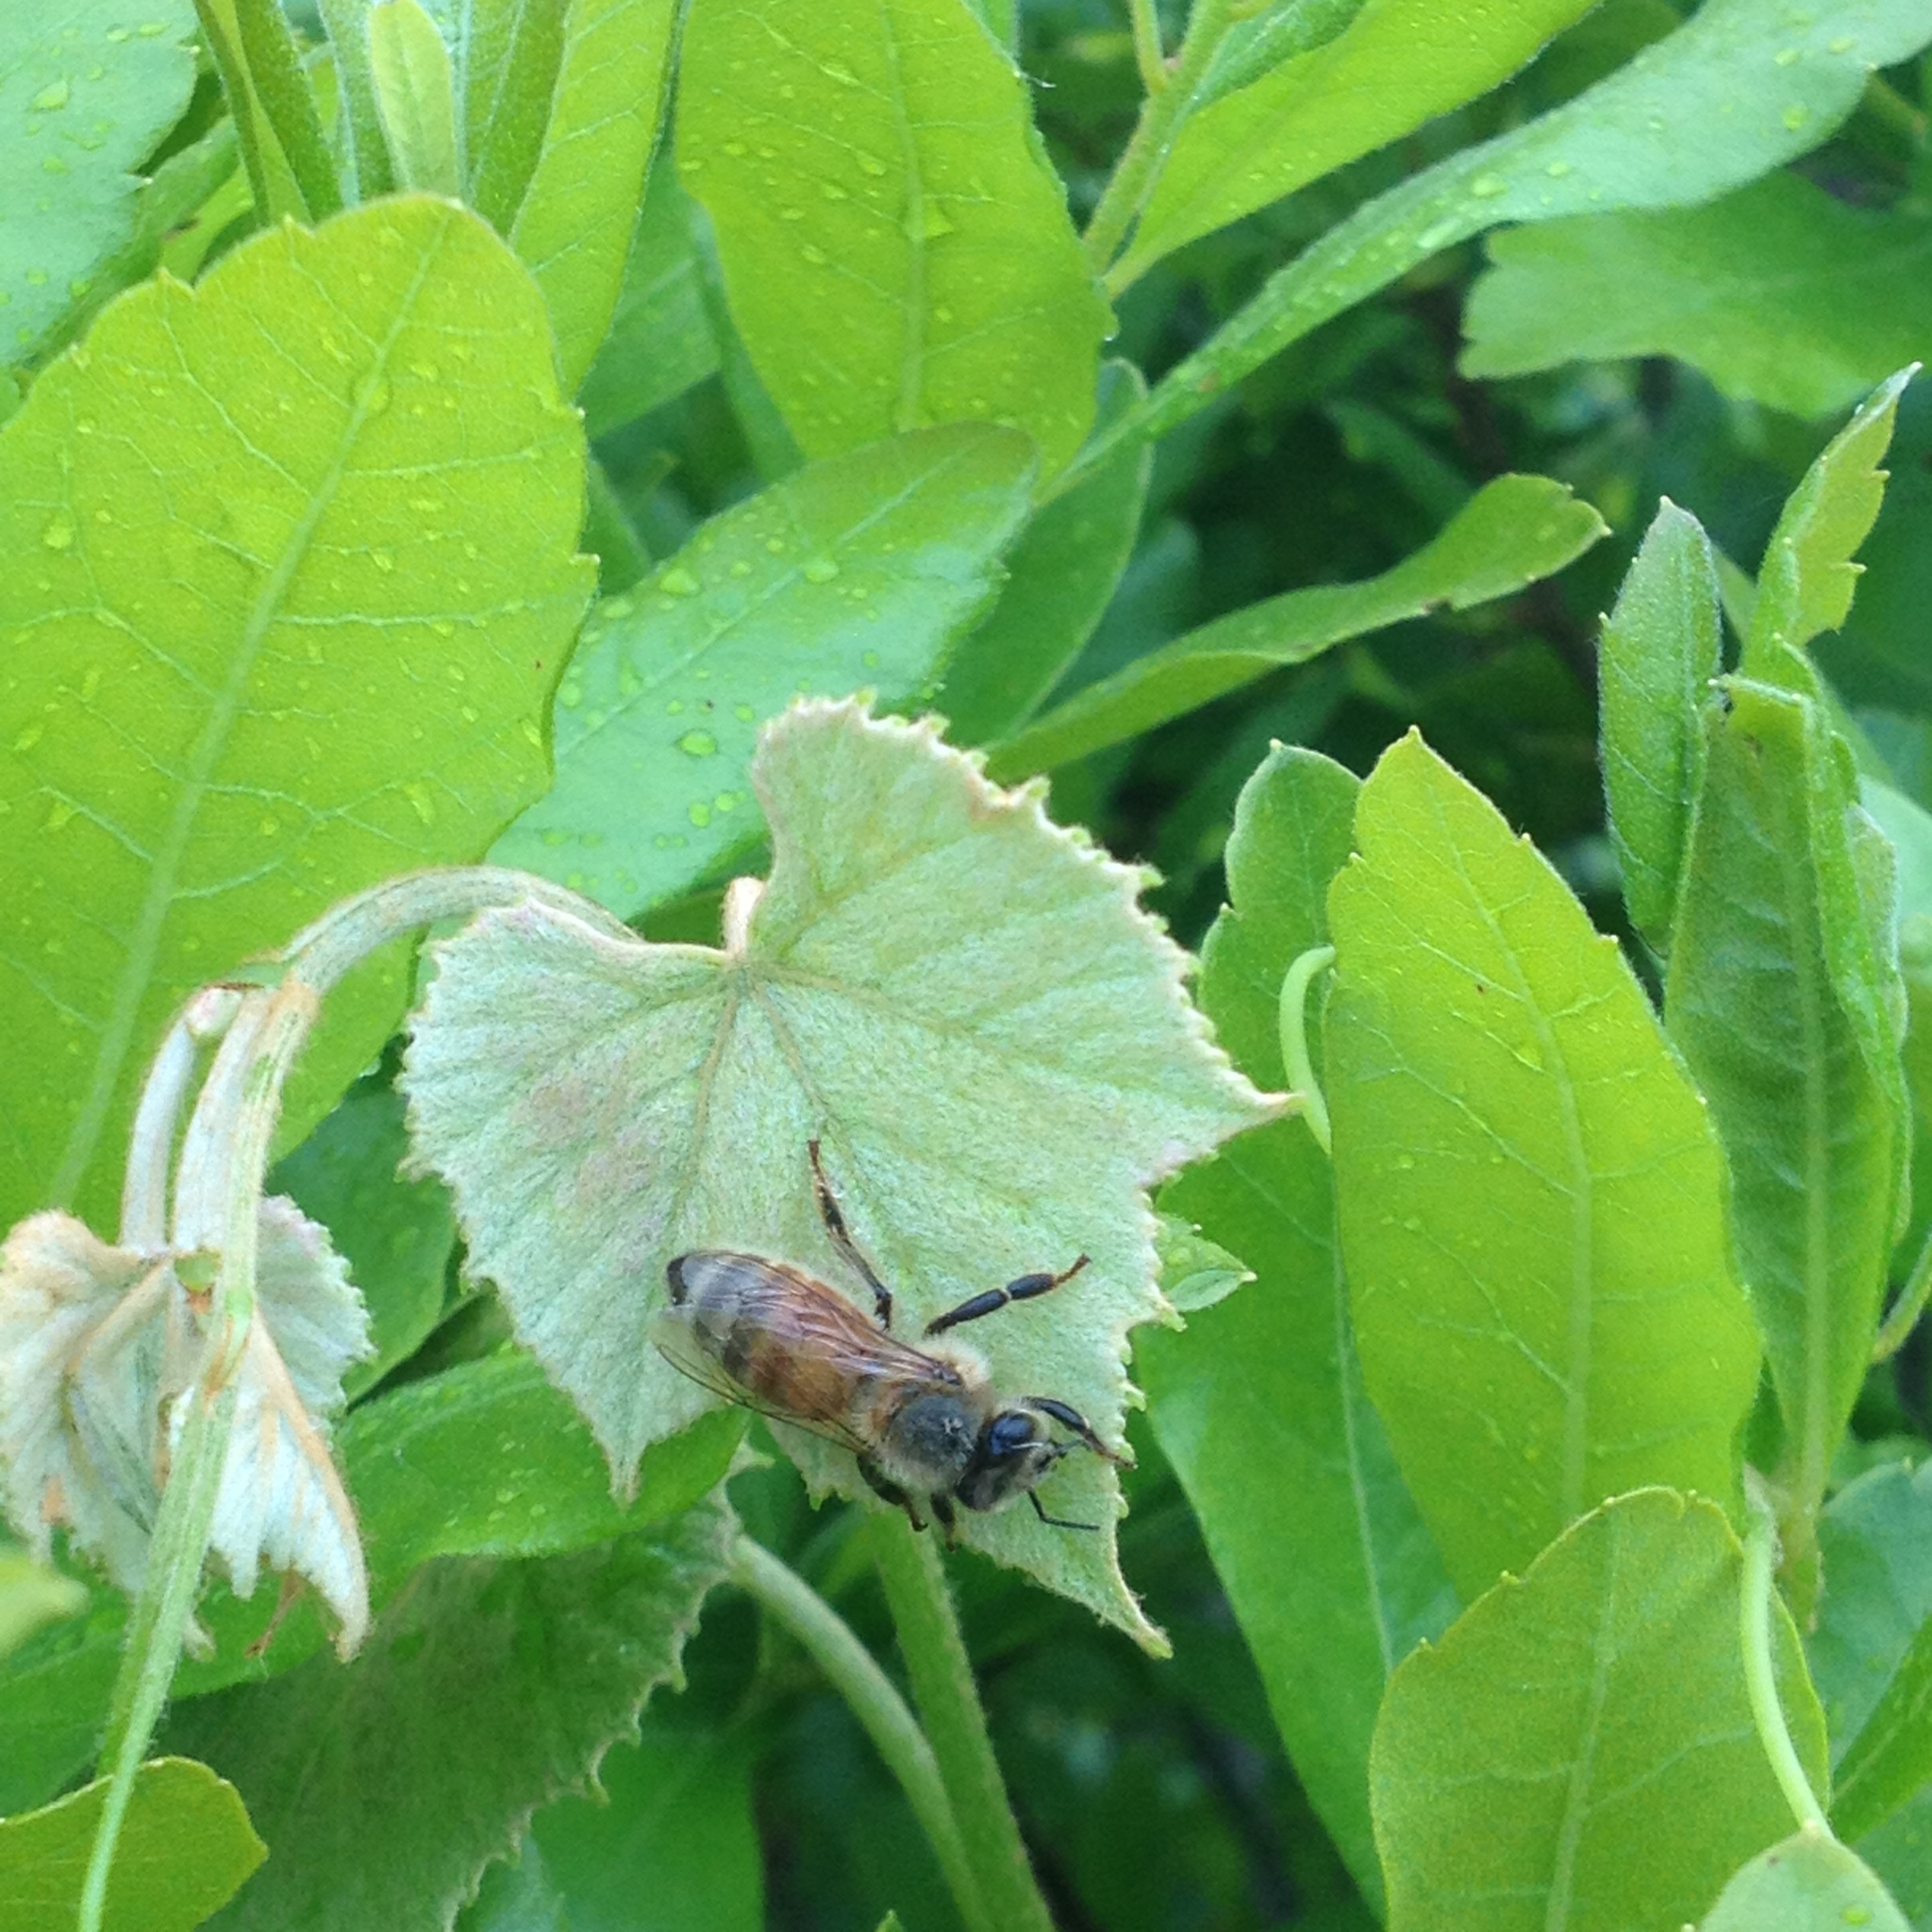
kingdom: Animalia
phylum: Arthropoda
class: Insecta
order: Hymenoptera
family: Apidae
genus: Apis
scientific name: Apis mellifera
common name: Honey bee
